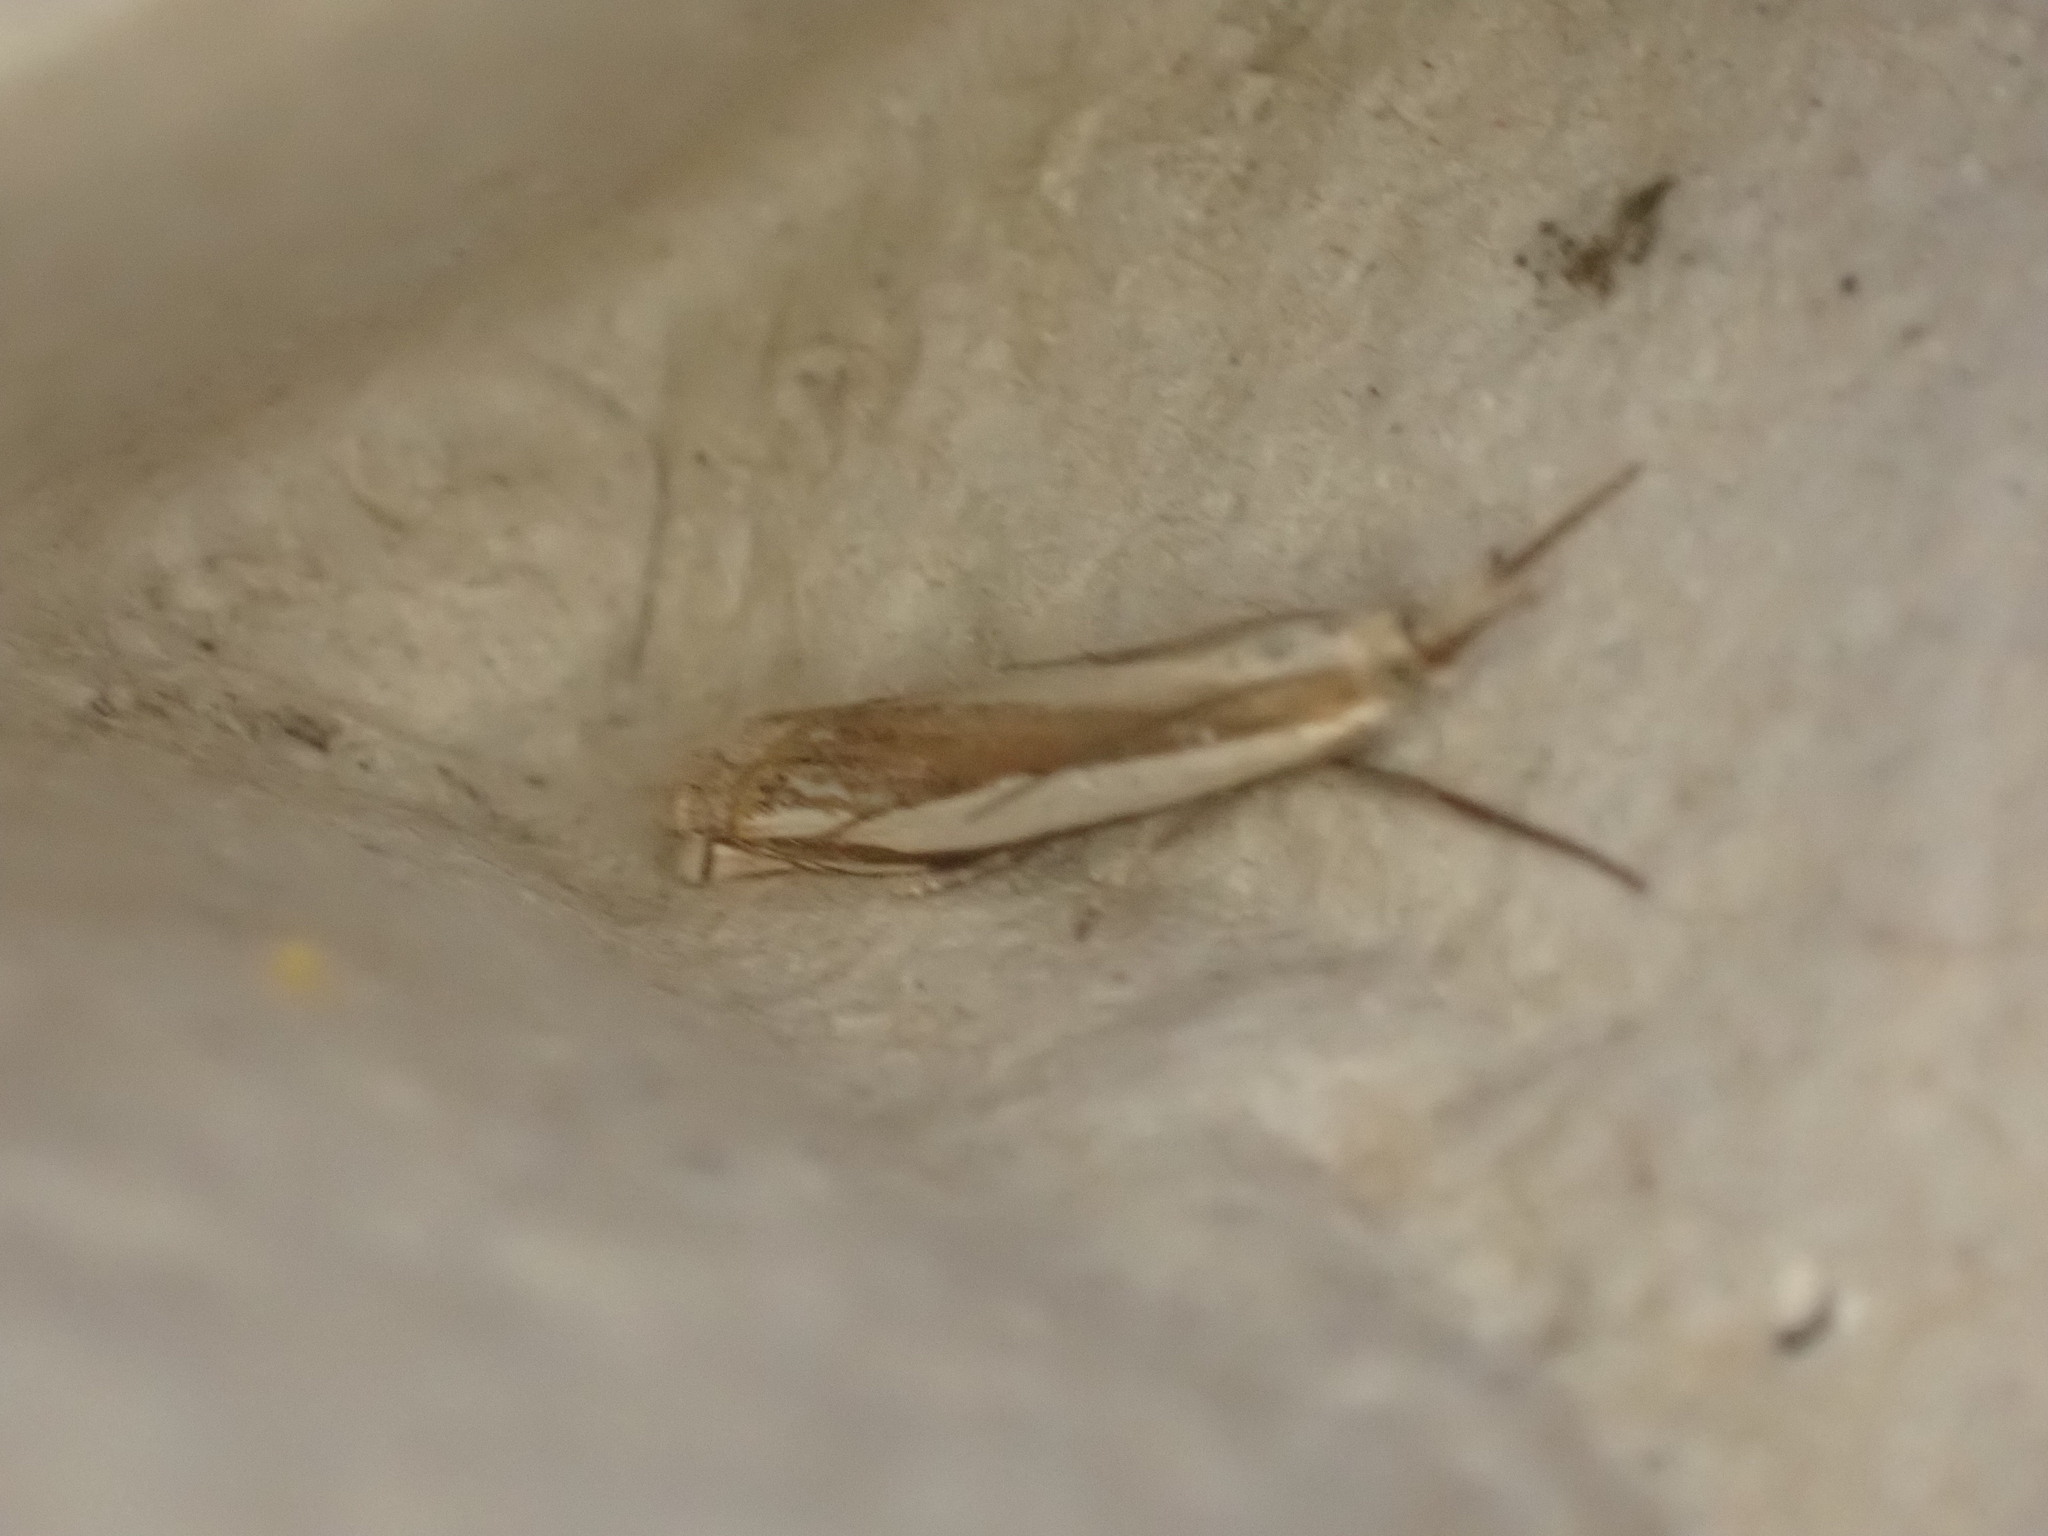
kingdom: Animalia
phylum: Arthropoda
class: Insecta
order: Lepidoptera
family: Crambidae
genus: Crambus
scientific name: Crambus pascuella
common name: Inlaid grass-veneer
